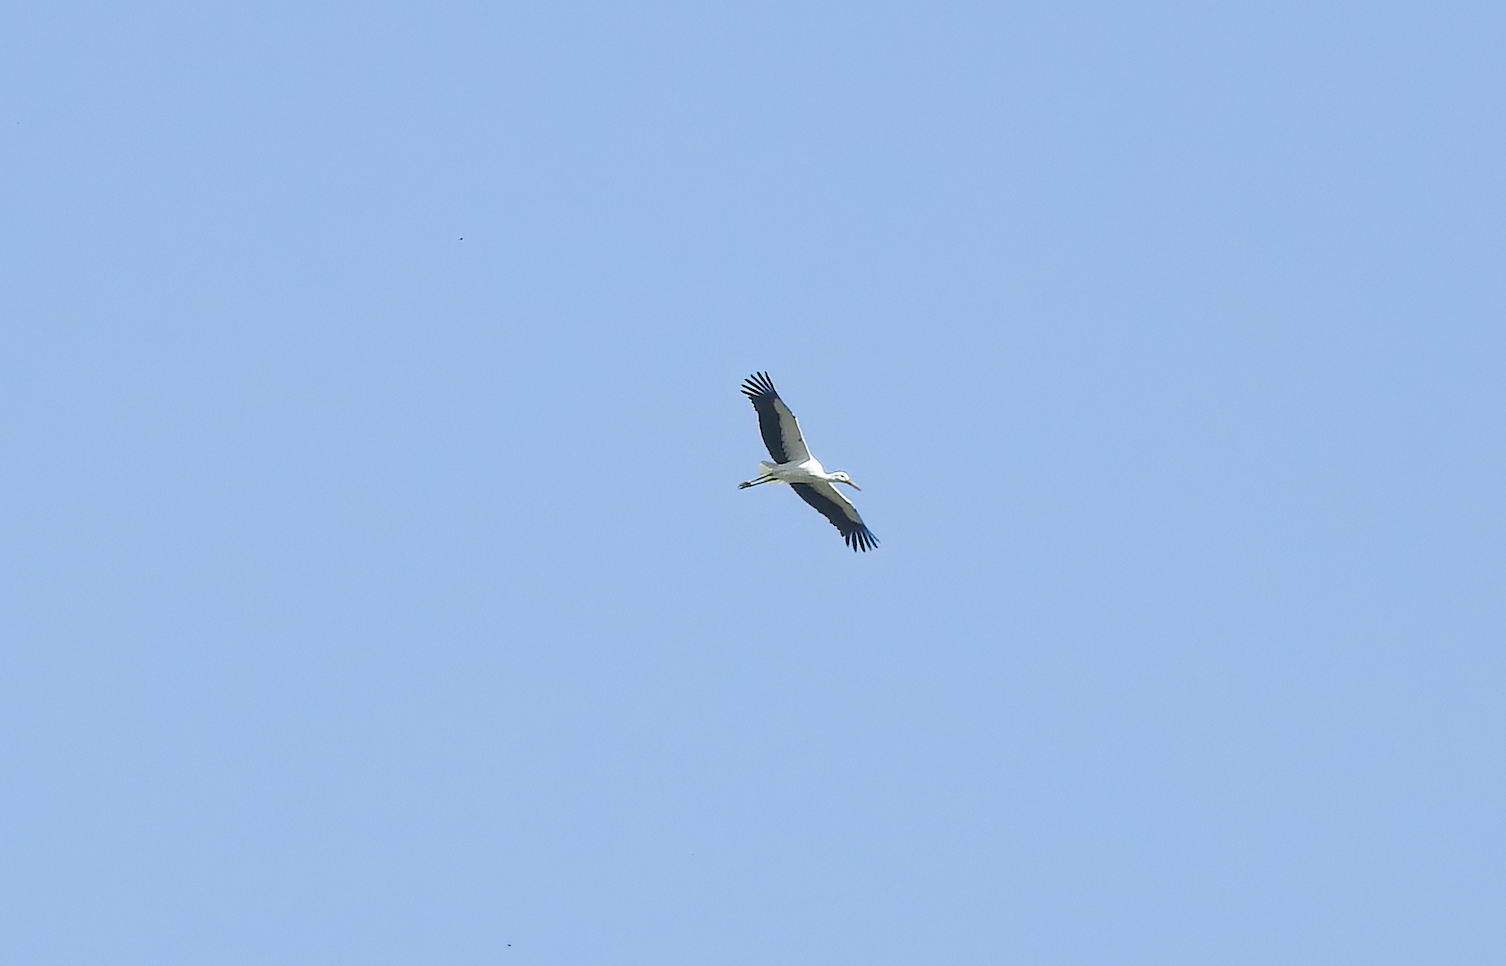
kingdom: Animalia
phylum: Chordata
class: Aves
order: Ciconiiformes
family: Ciconiidae
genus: Ciconia
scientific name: Ciconia ciconia
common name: White stork
